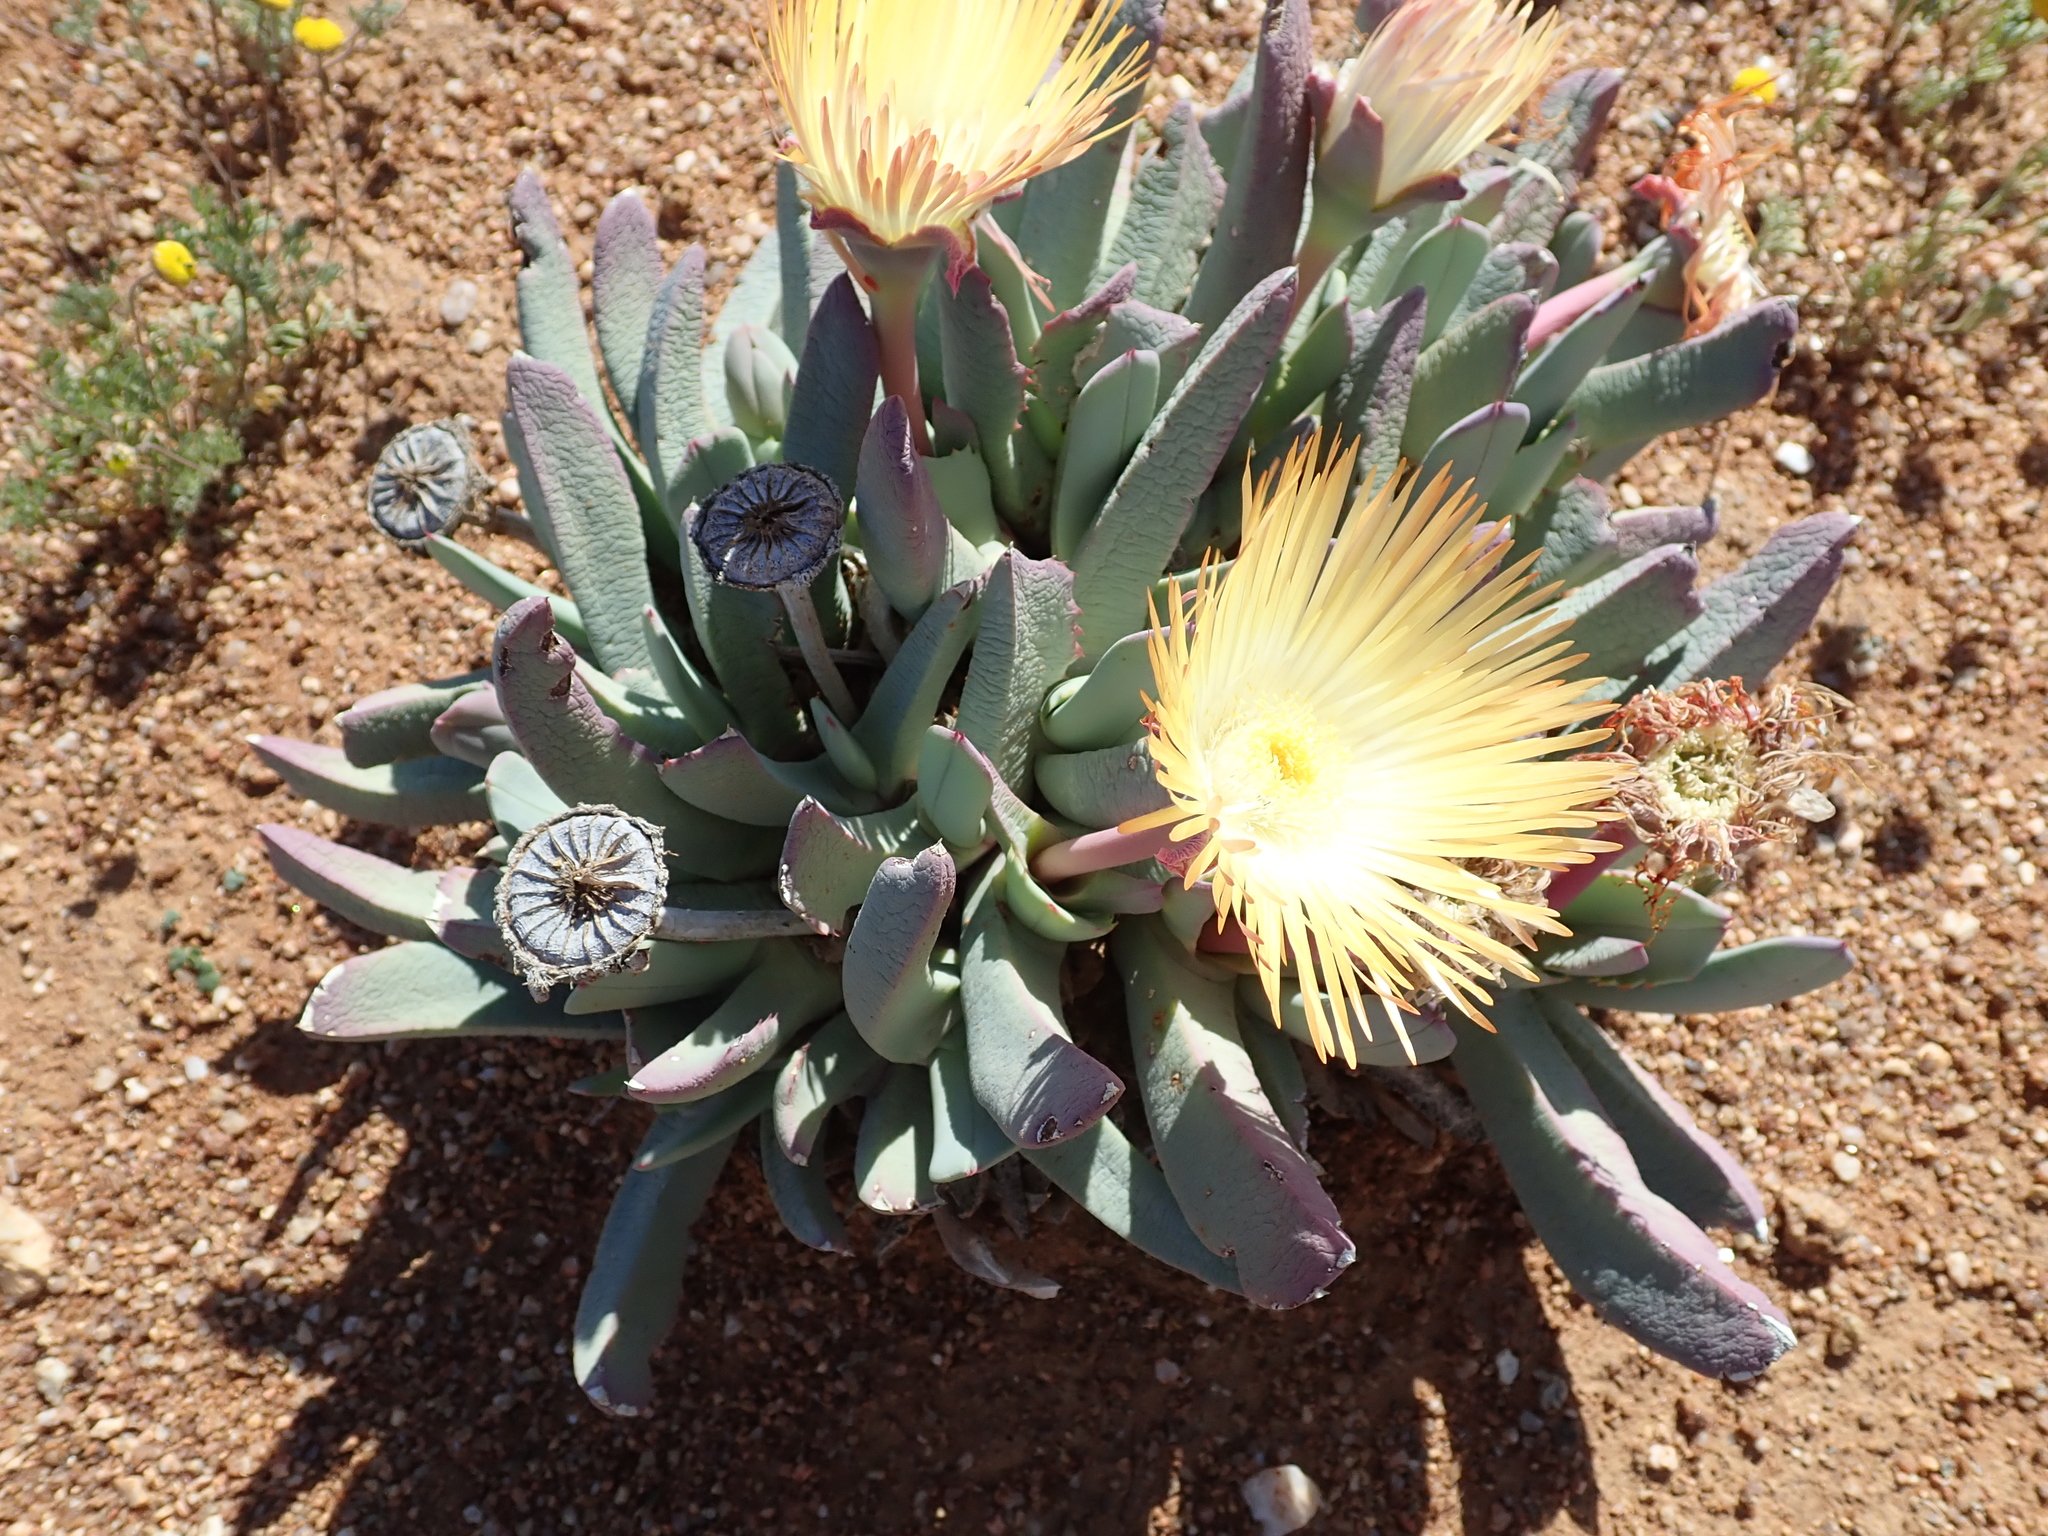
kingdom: Plantae
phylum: Tracheophyta
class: Magnoliopsida
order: Caryophyllales
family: Aizoaceae
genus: Cheiridopsis
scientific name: Cheiridopsis denticulata
